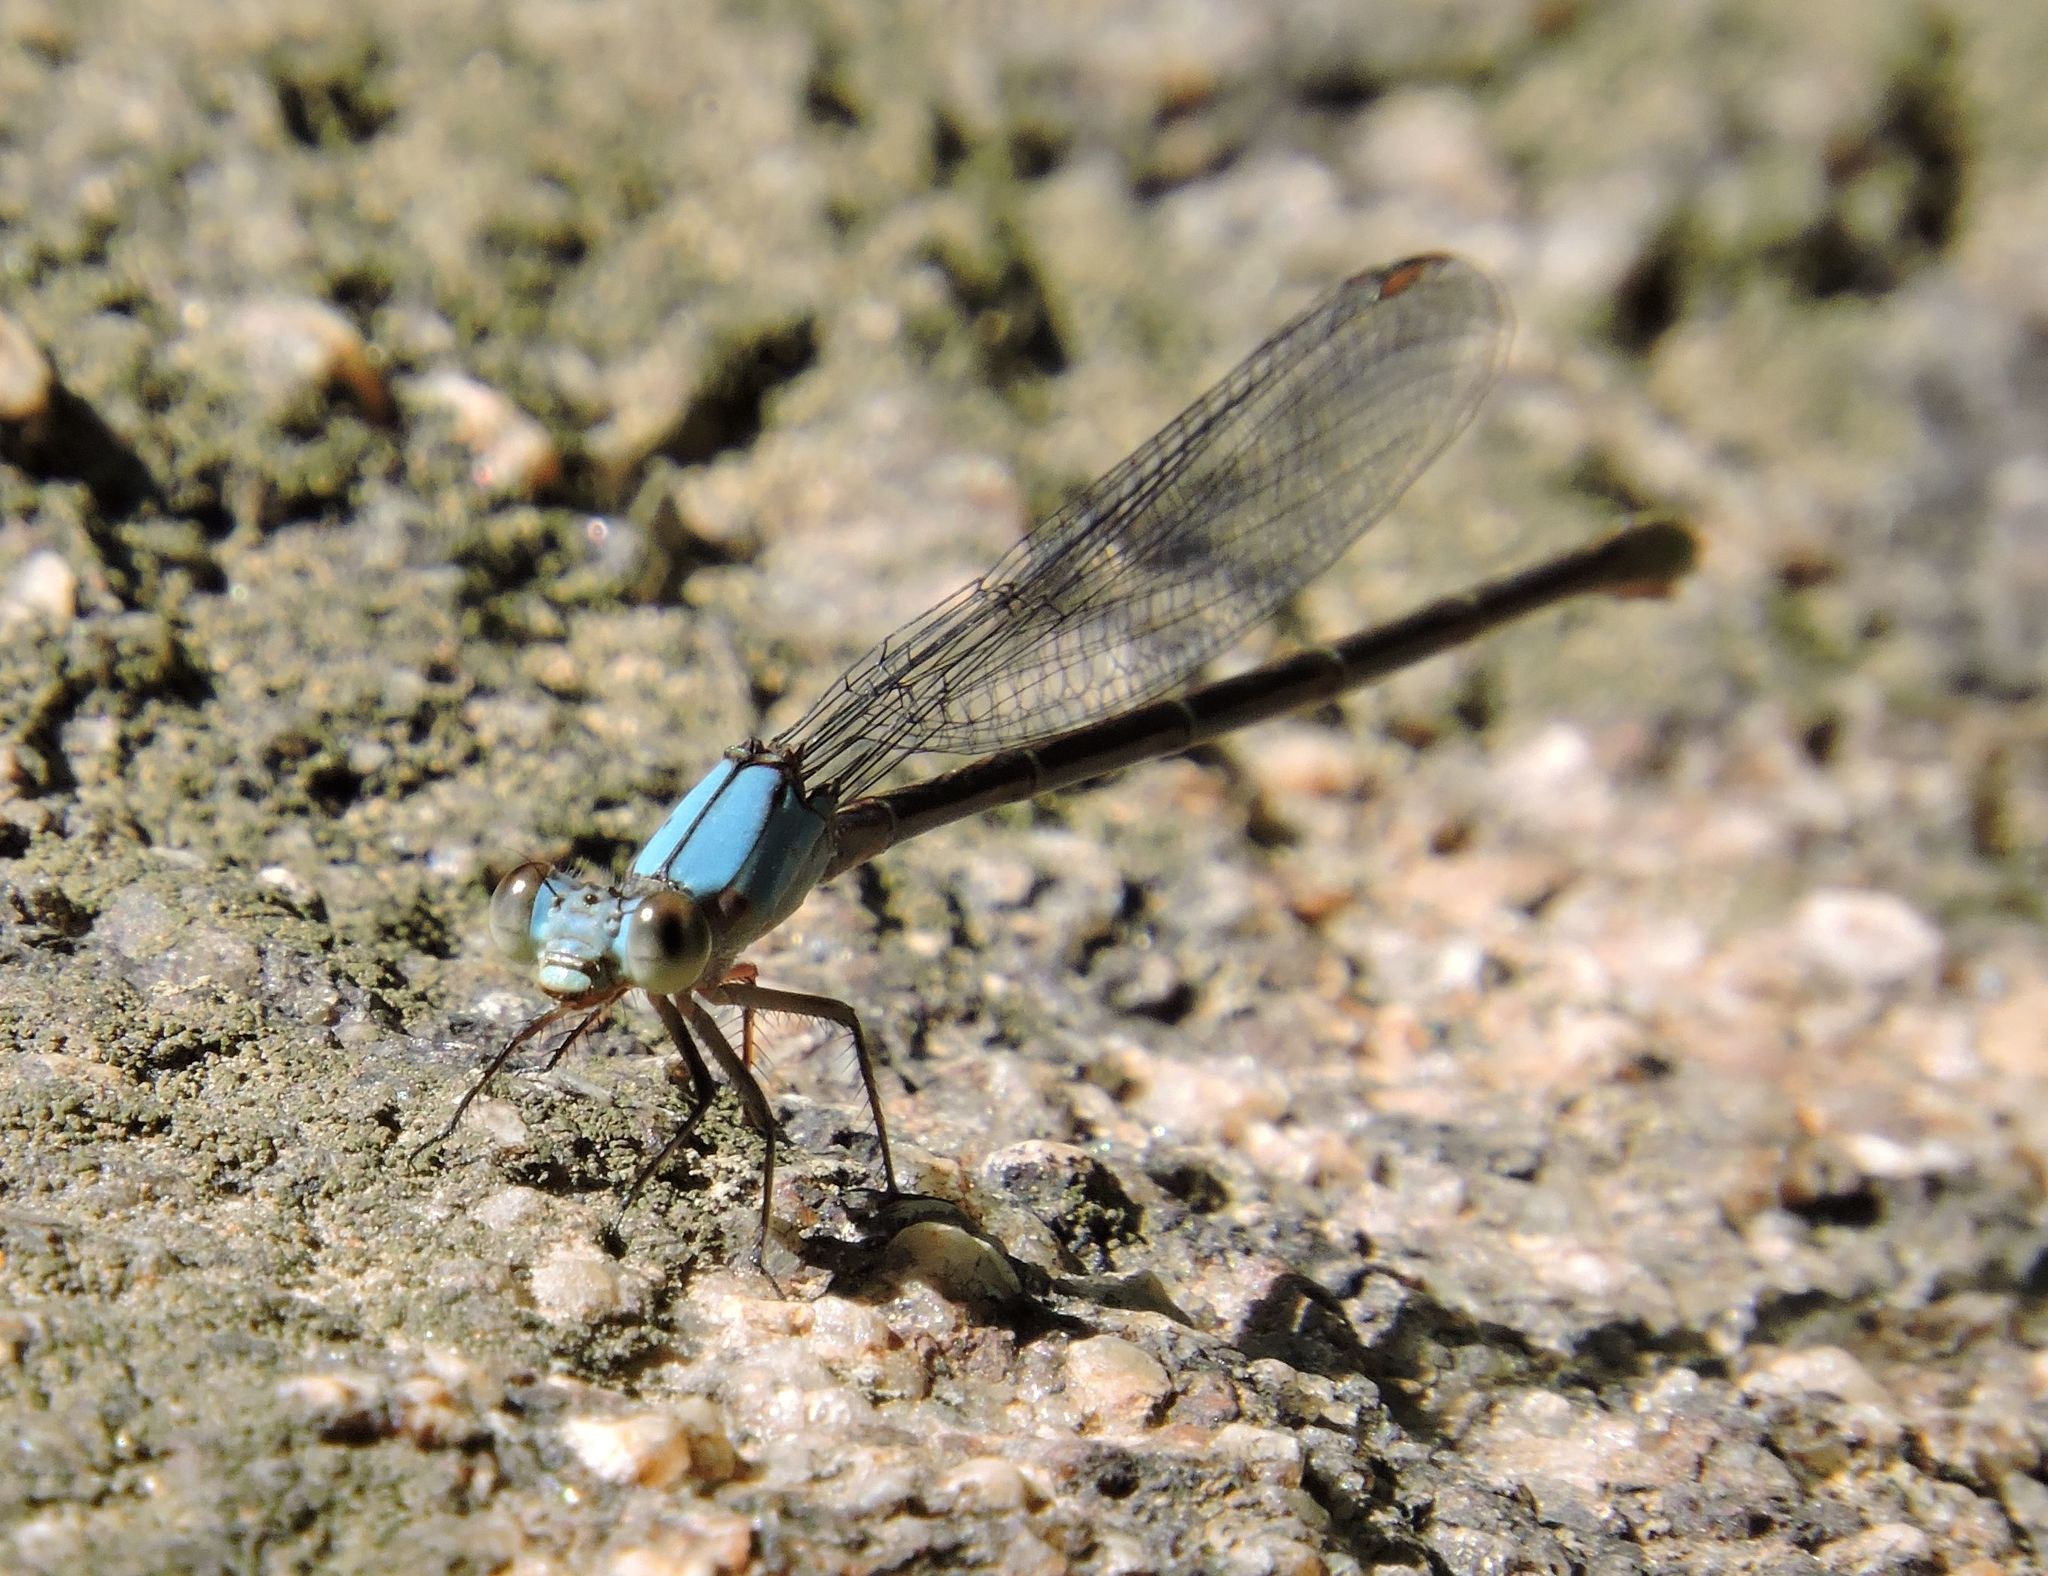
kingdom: Animalia
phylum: Arthropoda
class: Insecta
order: Odonata
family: Coenagrionidae
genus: Argia
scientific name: Argia apicalis
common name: Blue-fronted dancer
